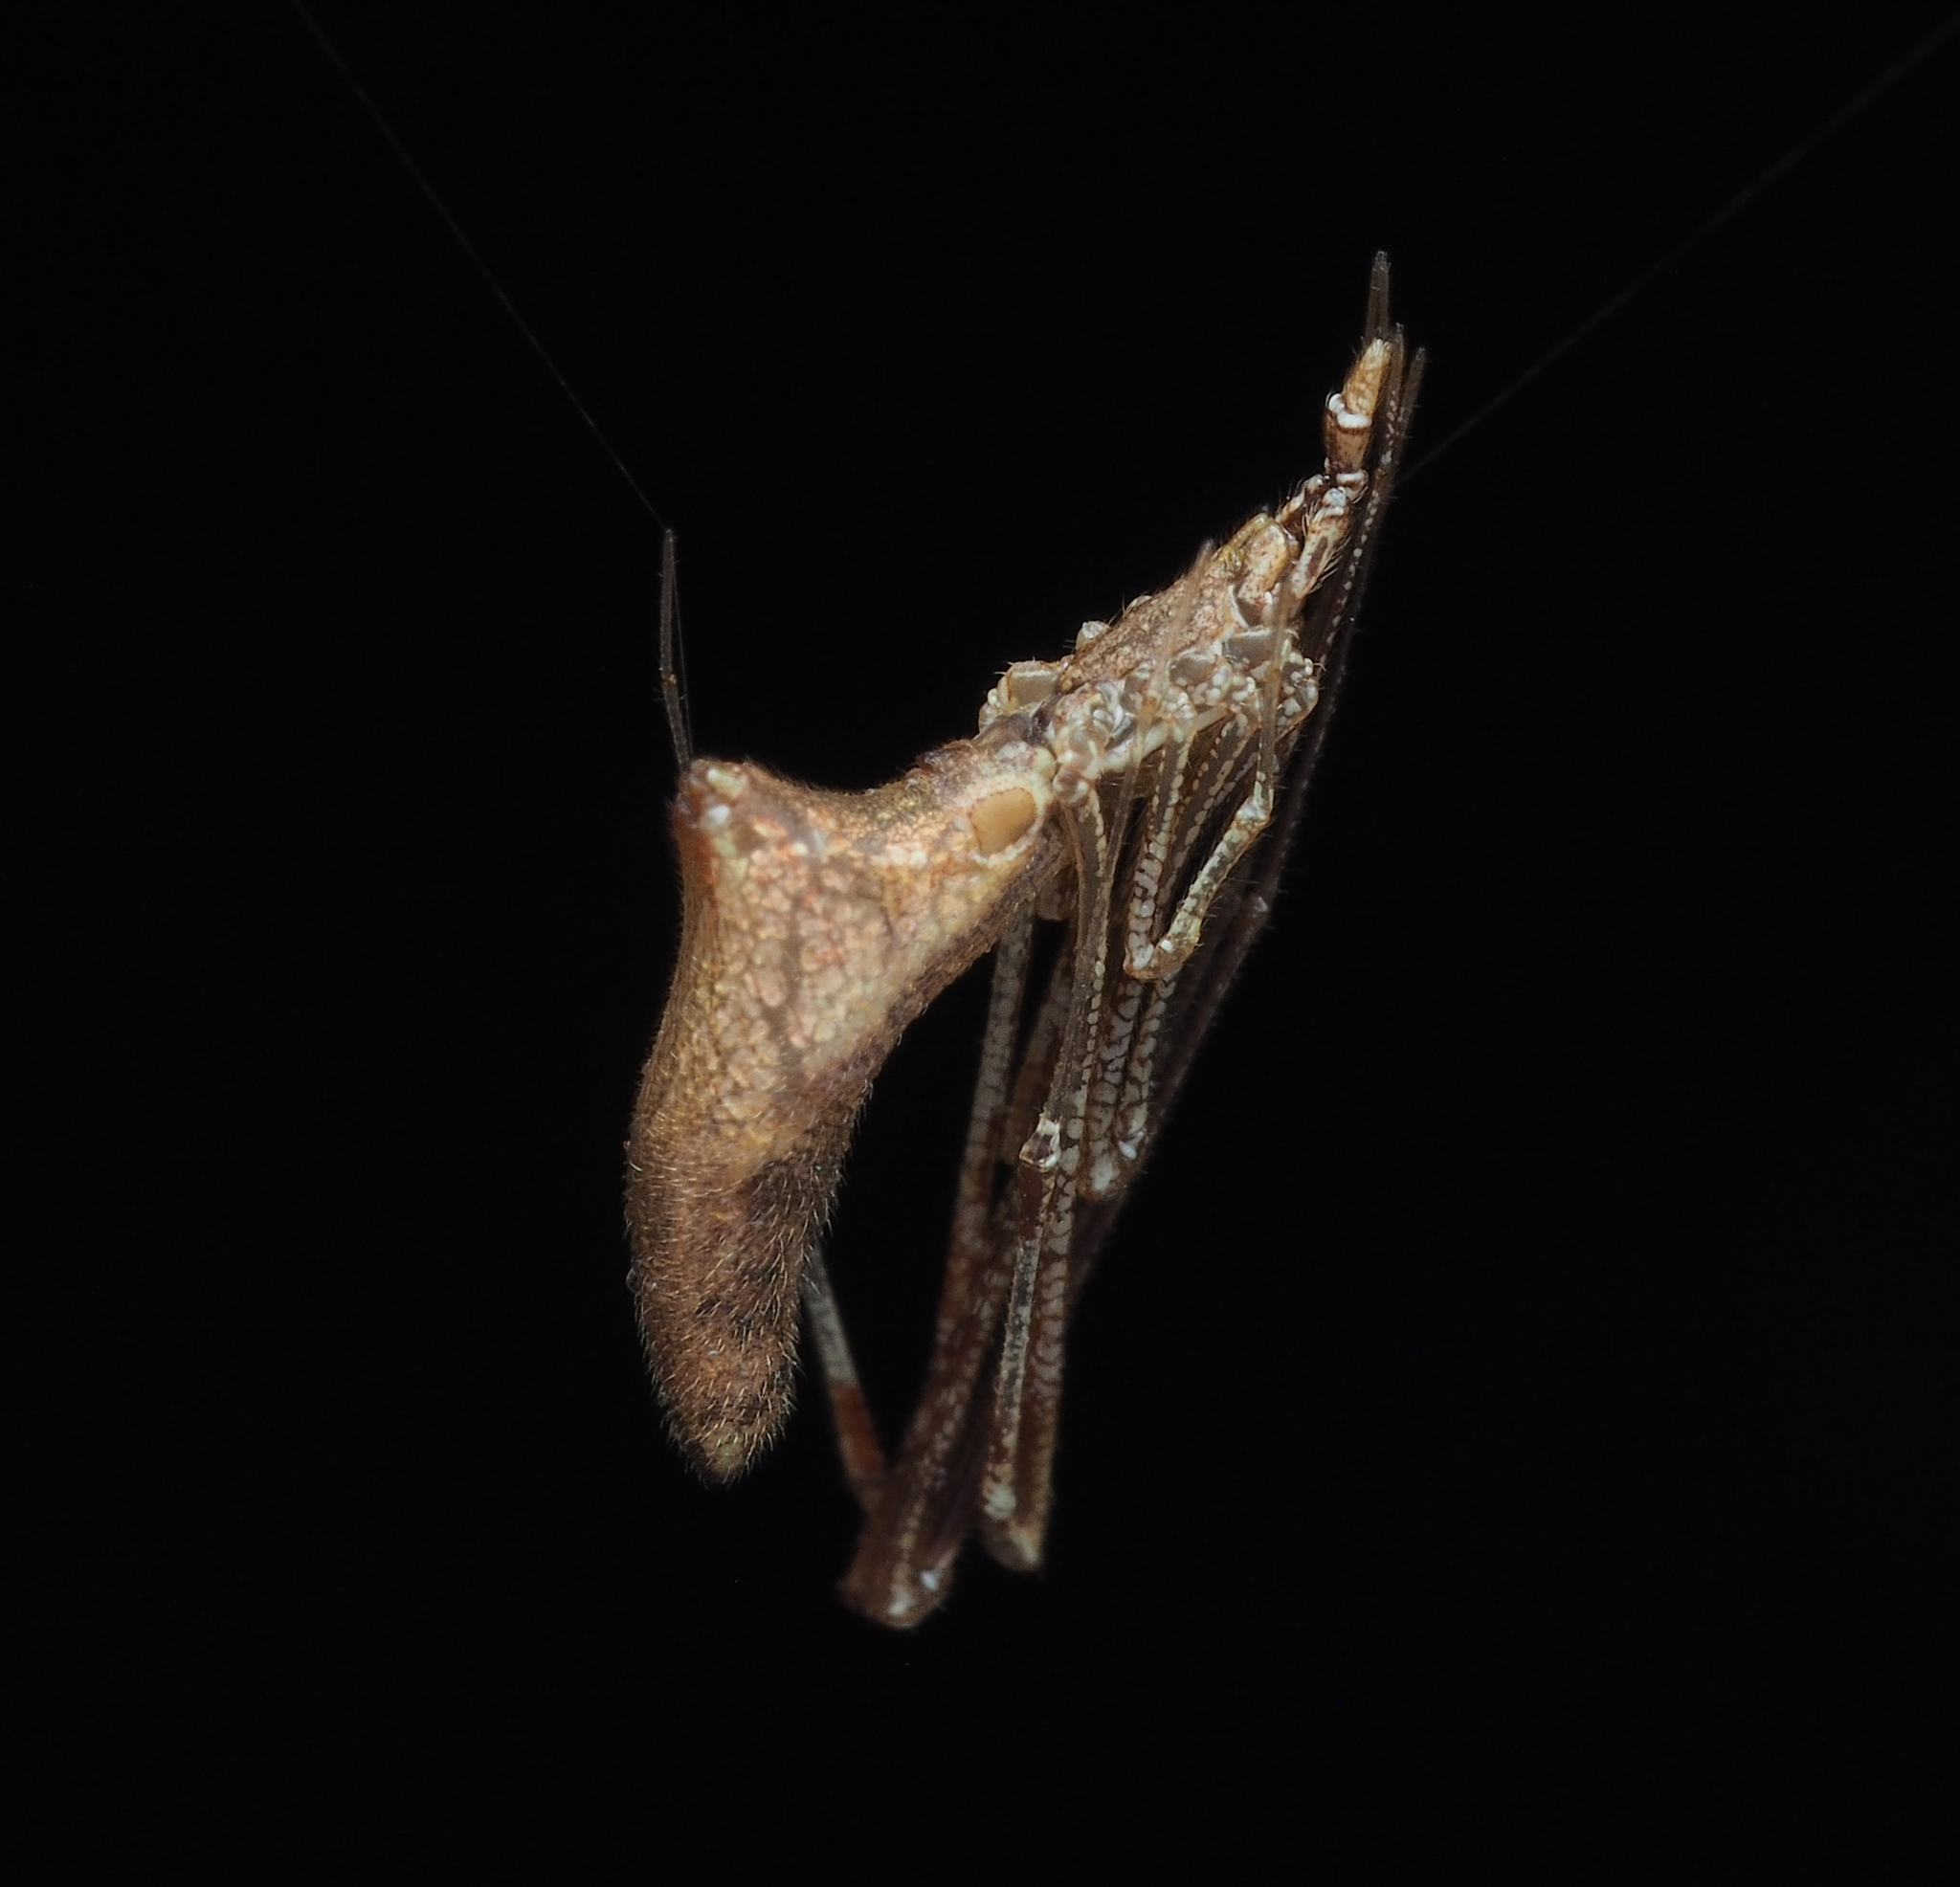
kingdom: Animalia
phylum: Arthropoda
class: Arachnida
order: Araneae
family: Theridiidae
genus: Rhomphaea
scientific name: Rhomphaea
